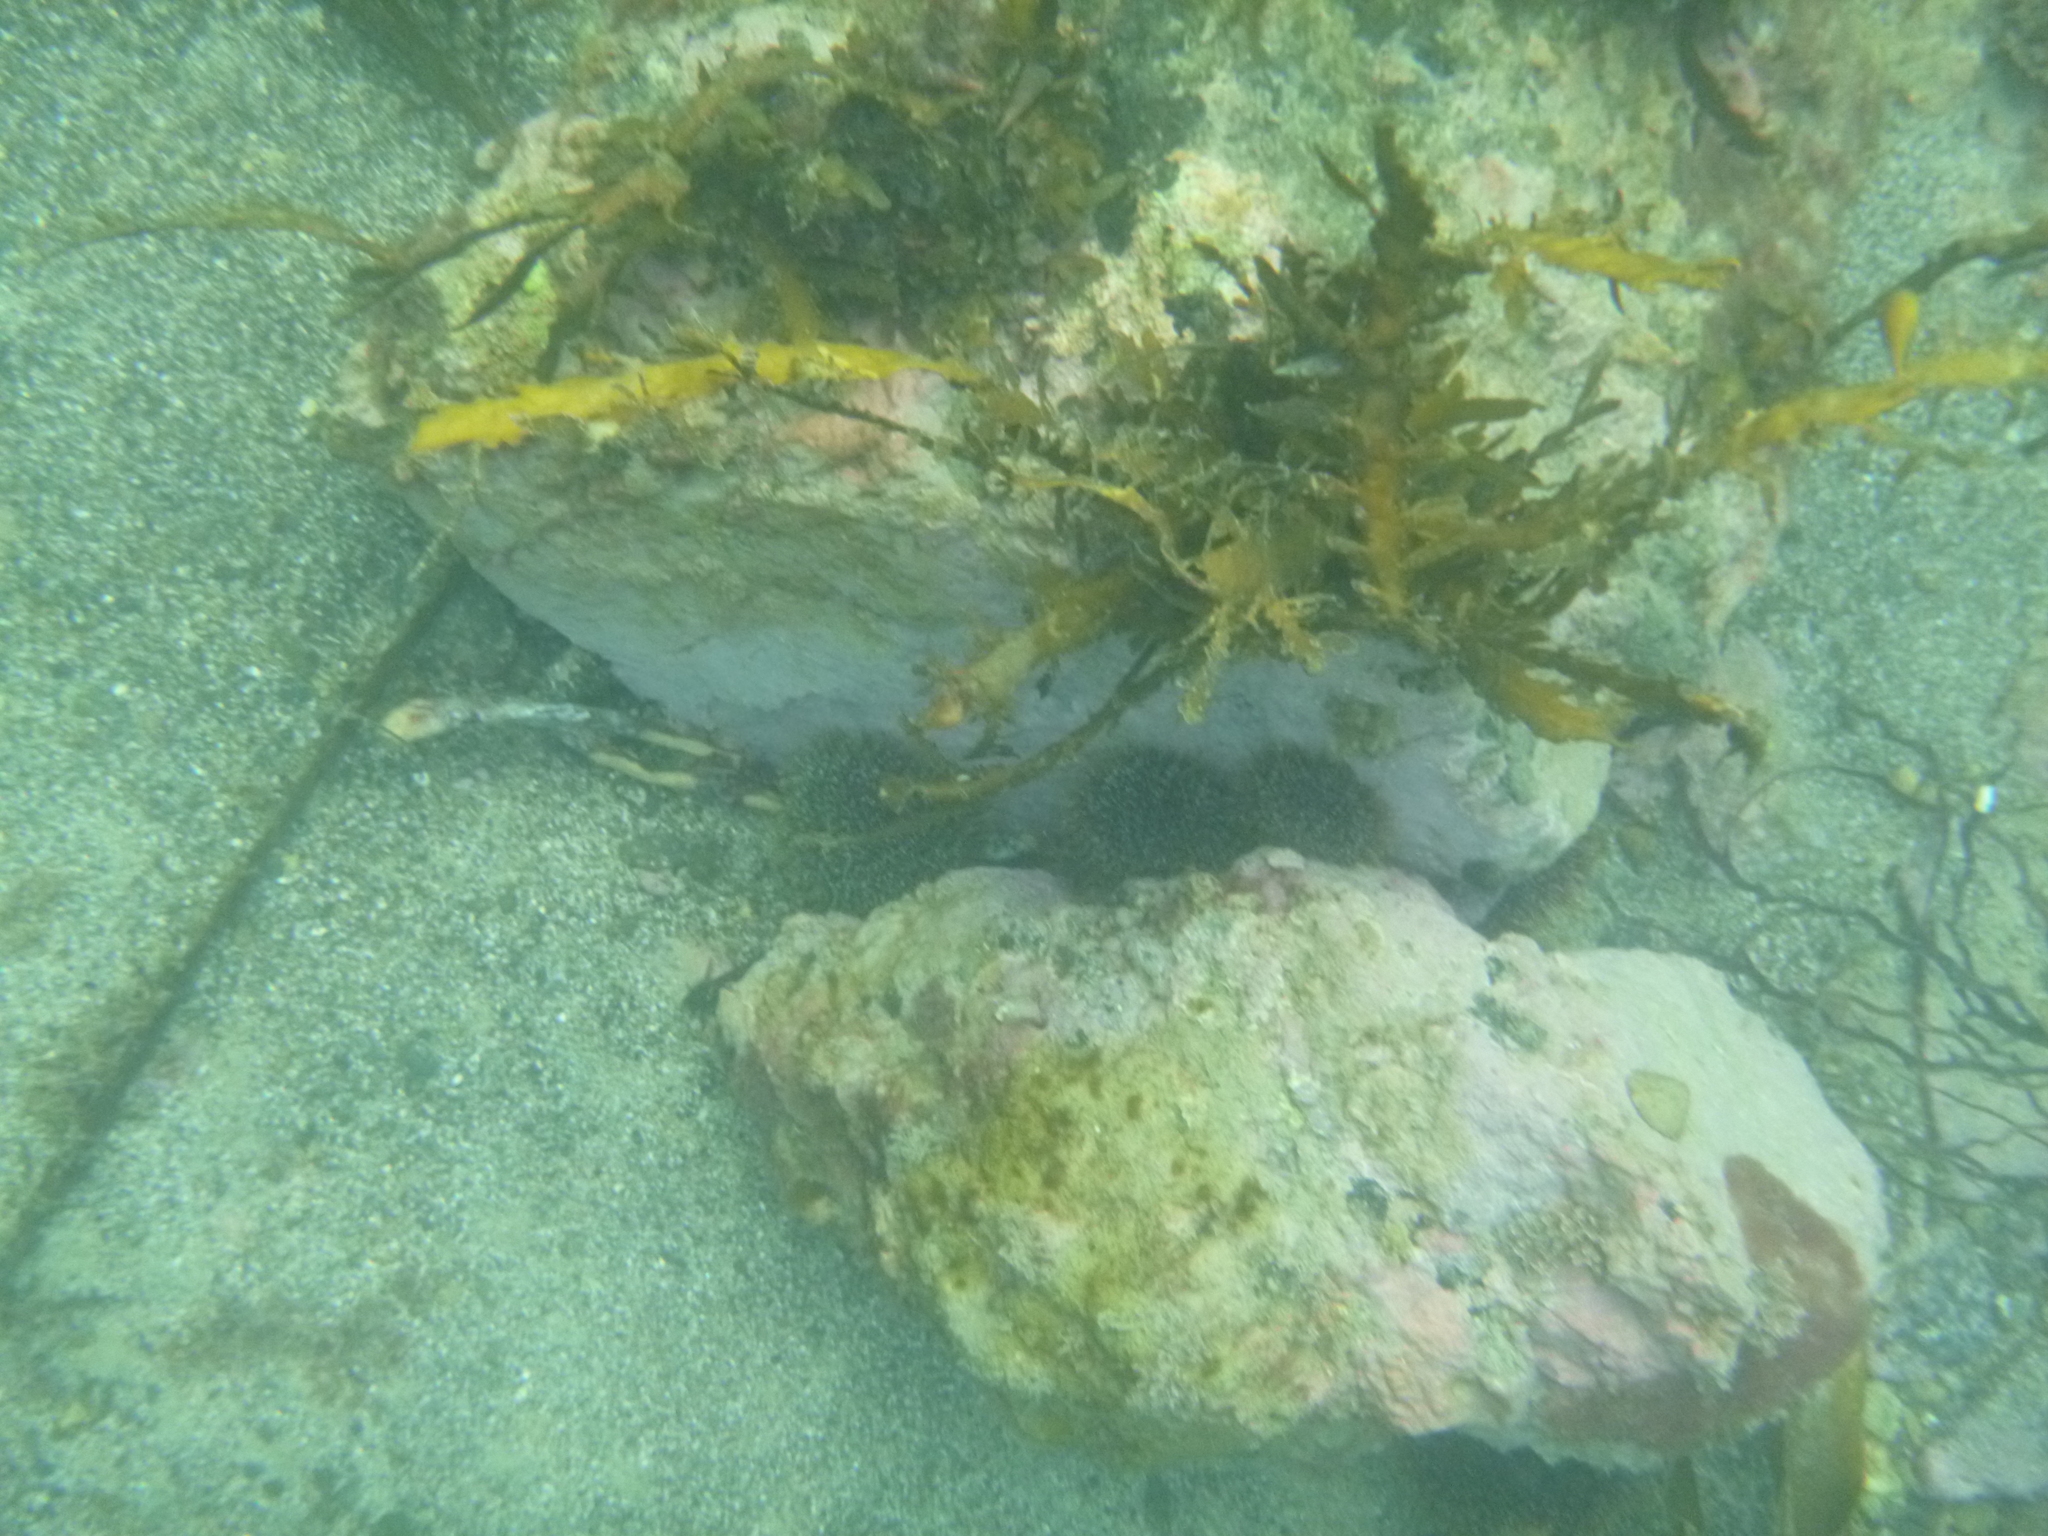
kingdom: Animalia
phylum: Echinodermata
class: Echinoidea
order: Camarodonta
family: Echinometridae
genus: Evechinus
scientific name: Evechinus chloroticus
